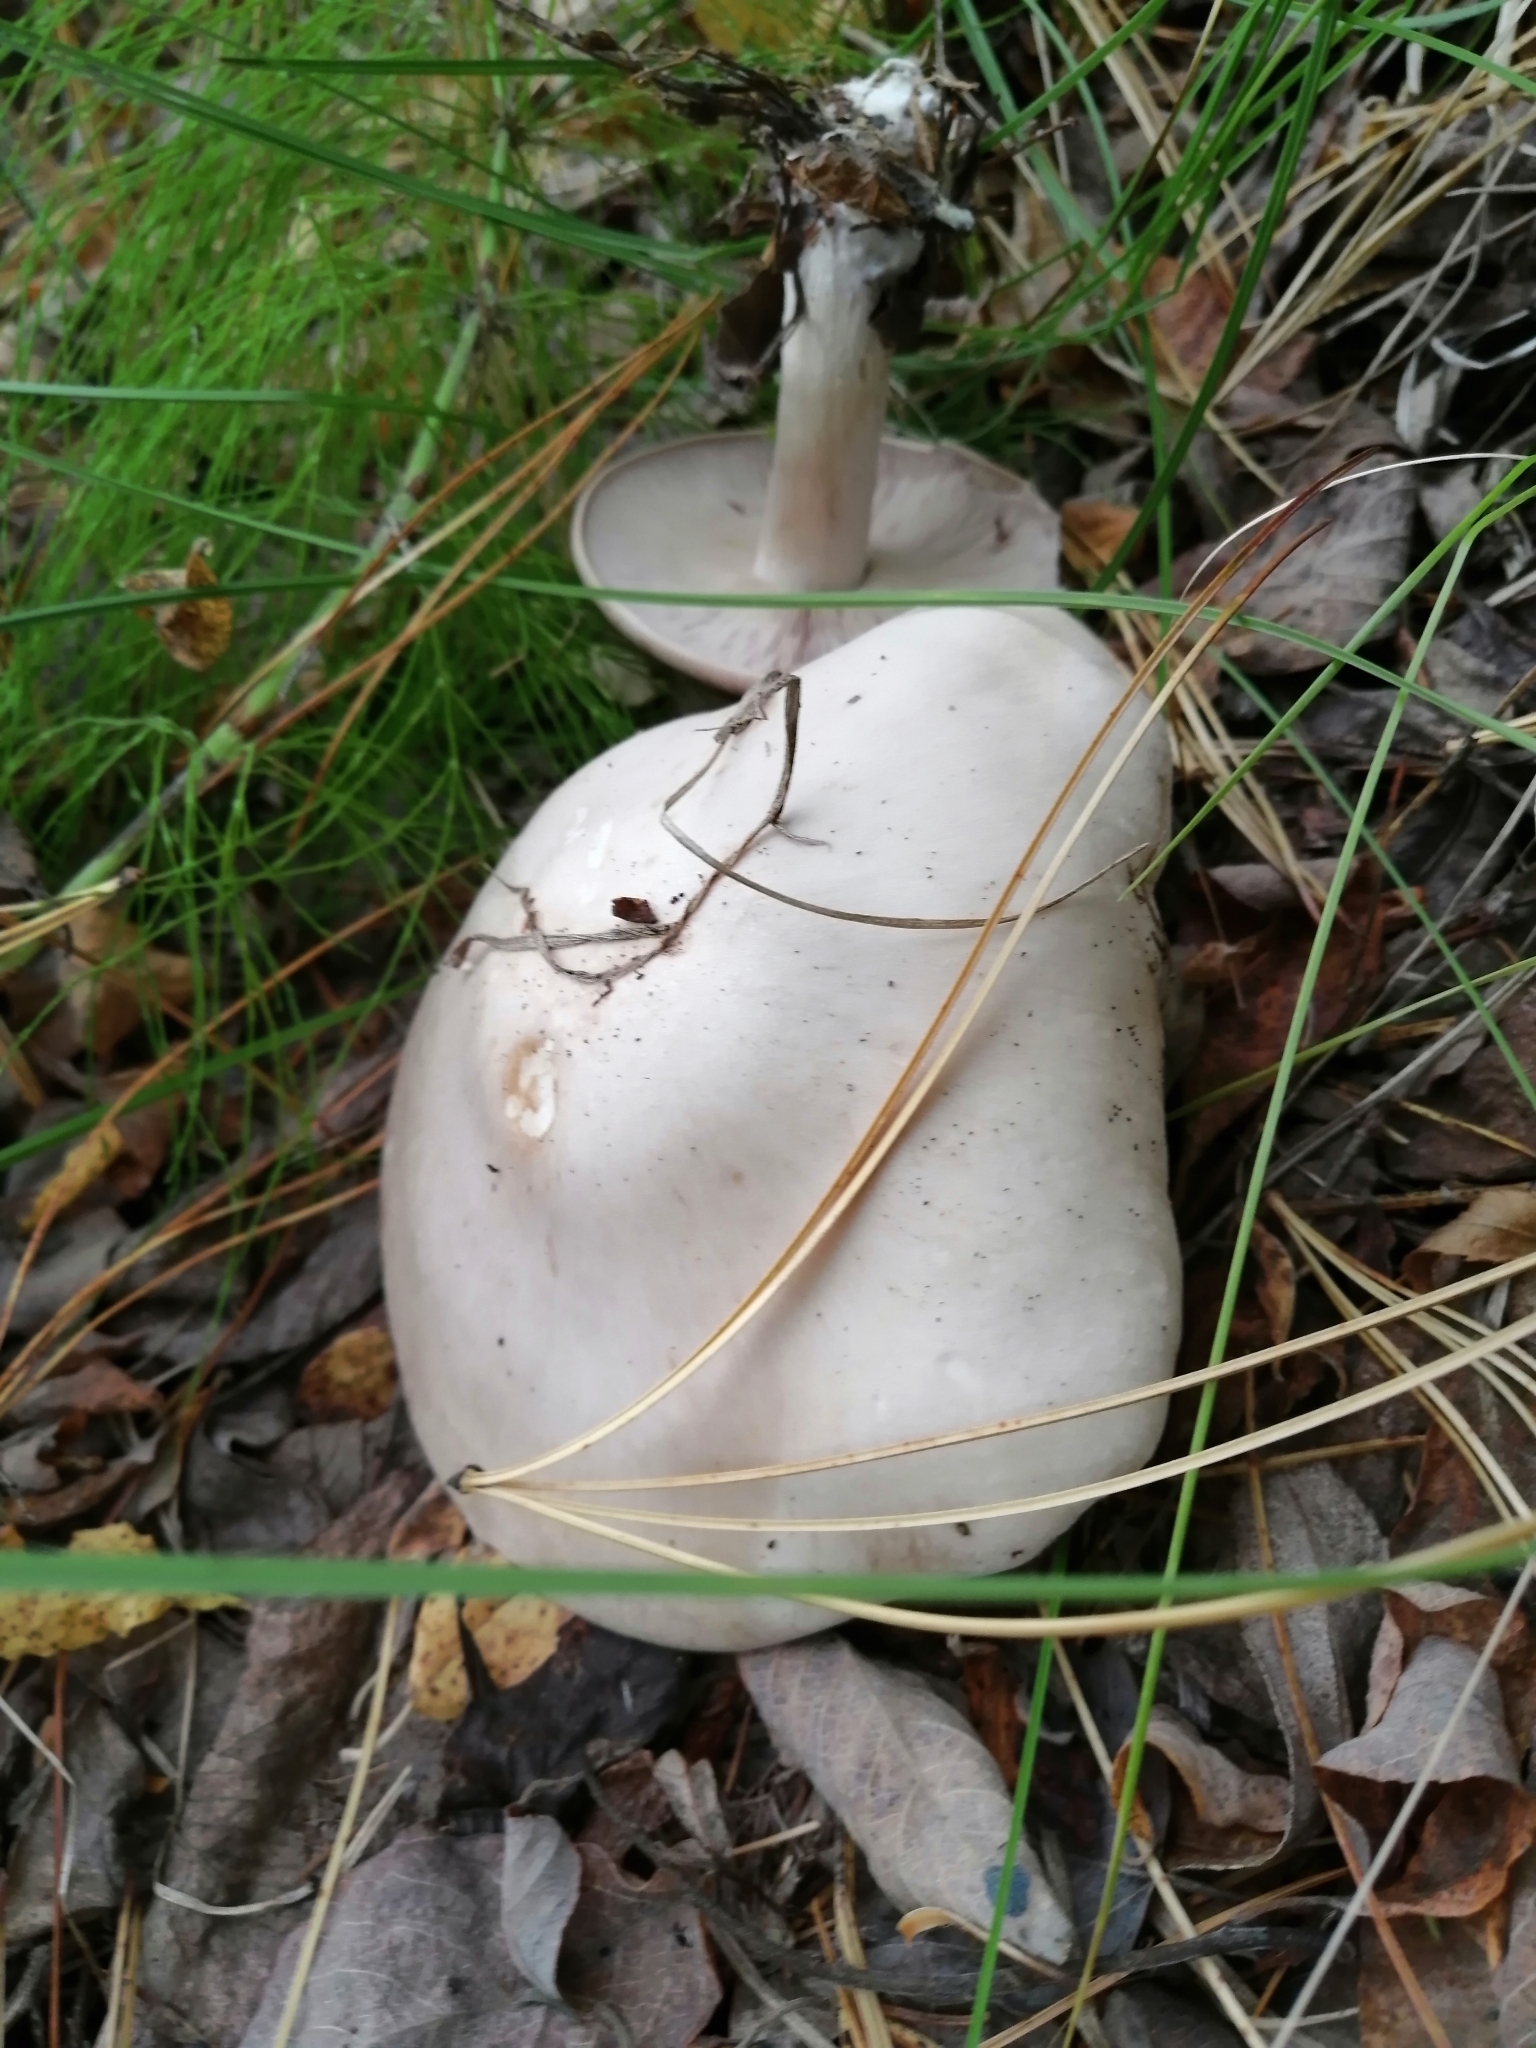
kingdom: Fungi
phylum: Basidiomycota
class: Agaricomycetes
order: Agaricales
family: Tricholomataceae
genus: Clitocybe
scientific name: Clitocybe nebularis
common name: Clouded agaric
